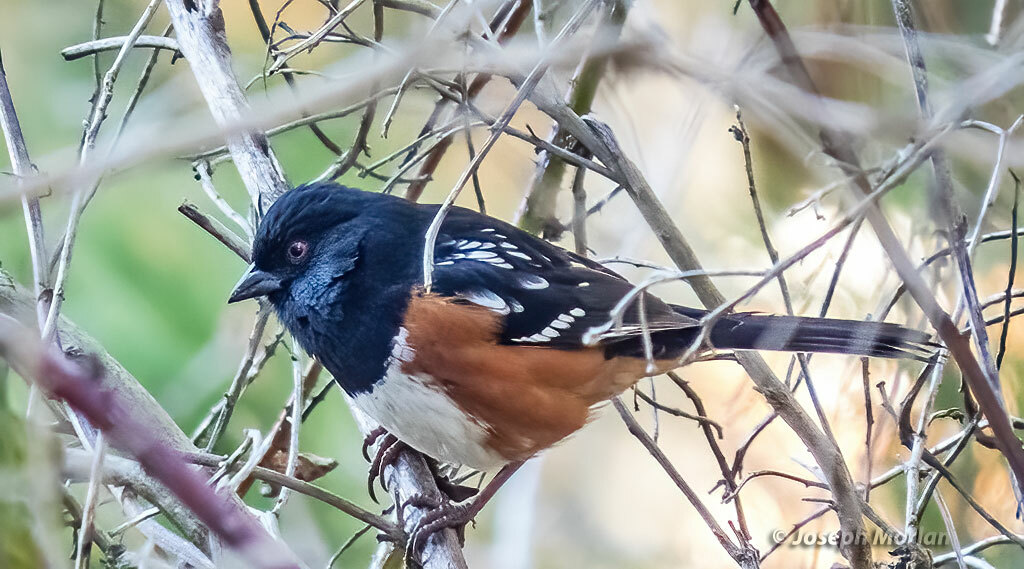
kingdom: Animalia
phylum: Chordata
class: Aves
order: Passeriformes
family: Passerellidae
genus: Pipilo
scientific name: Pipilo maculatus
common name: Spotted towhee
